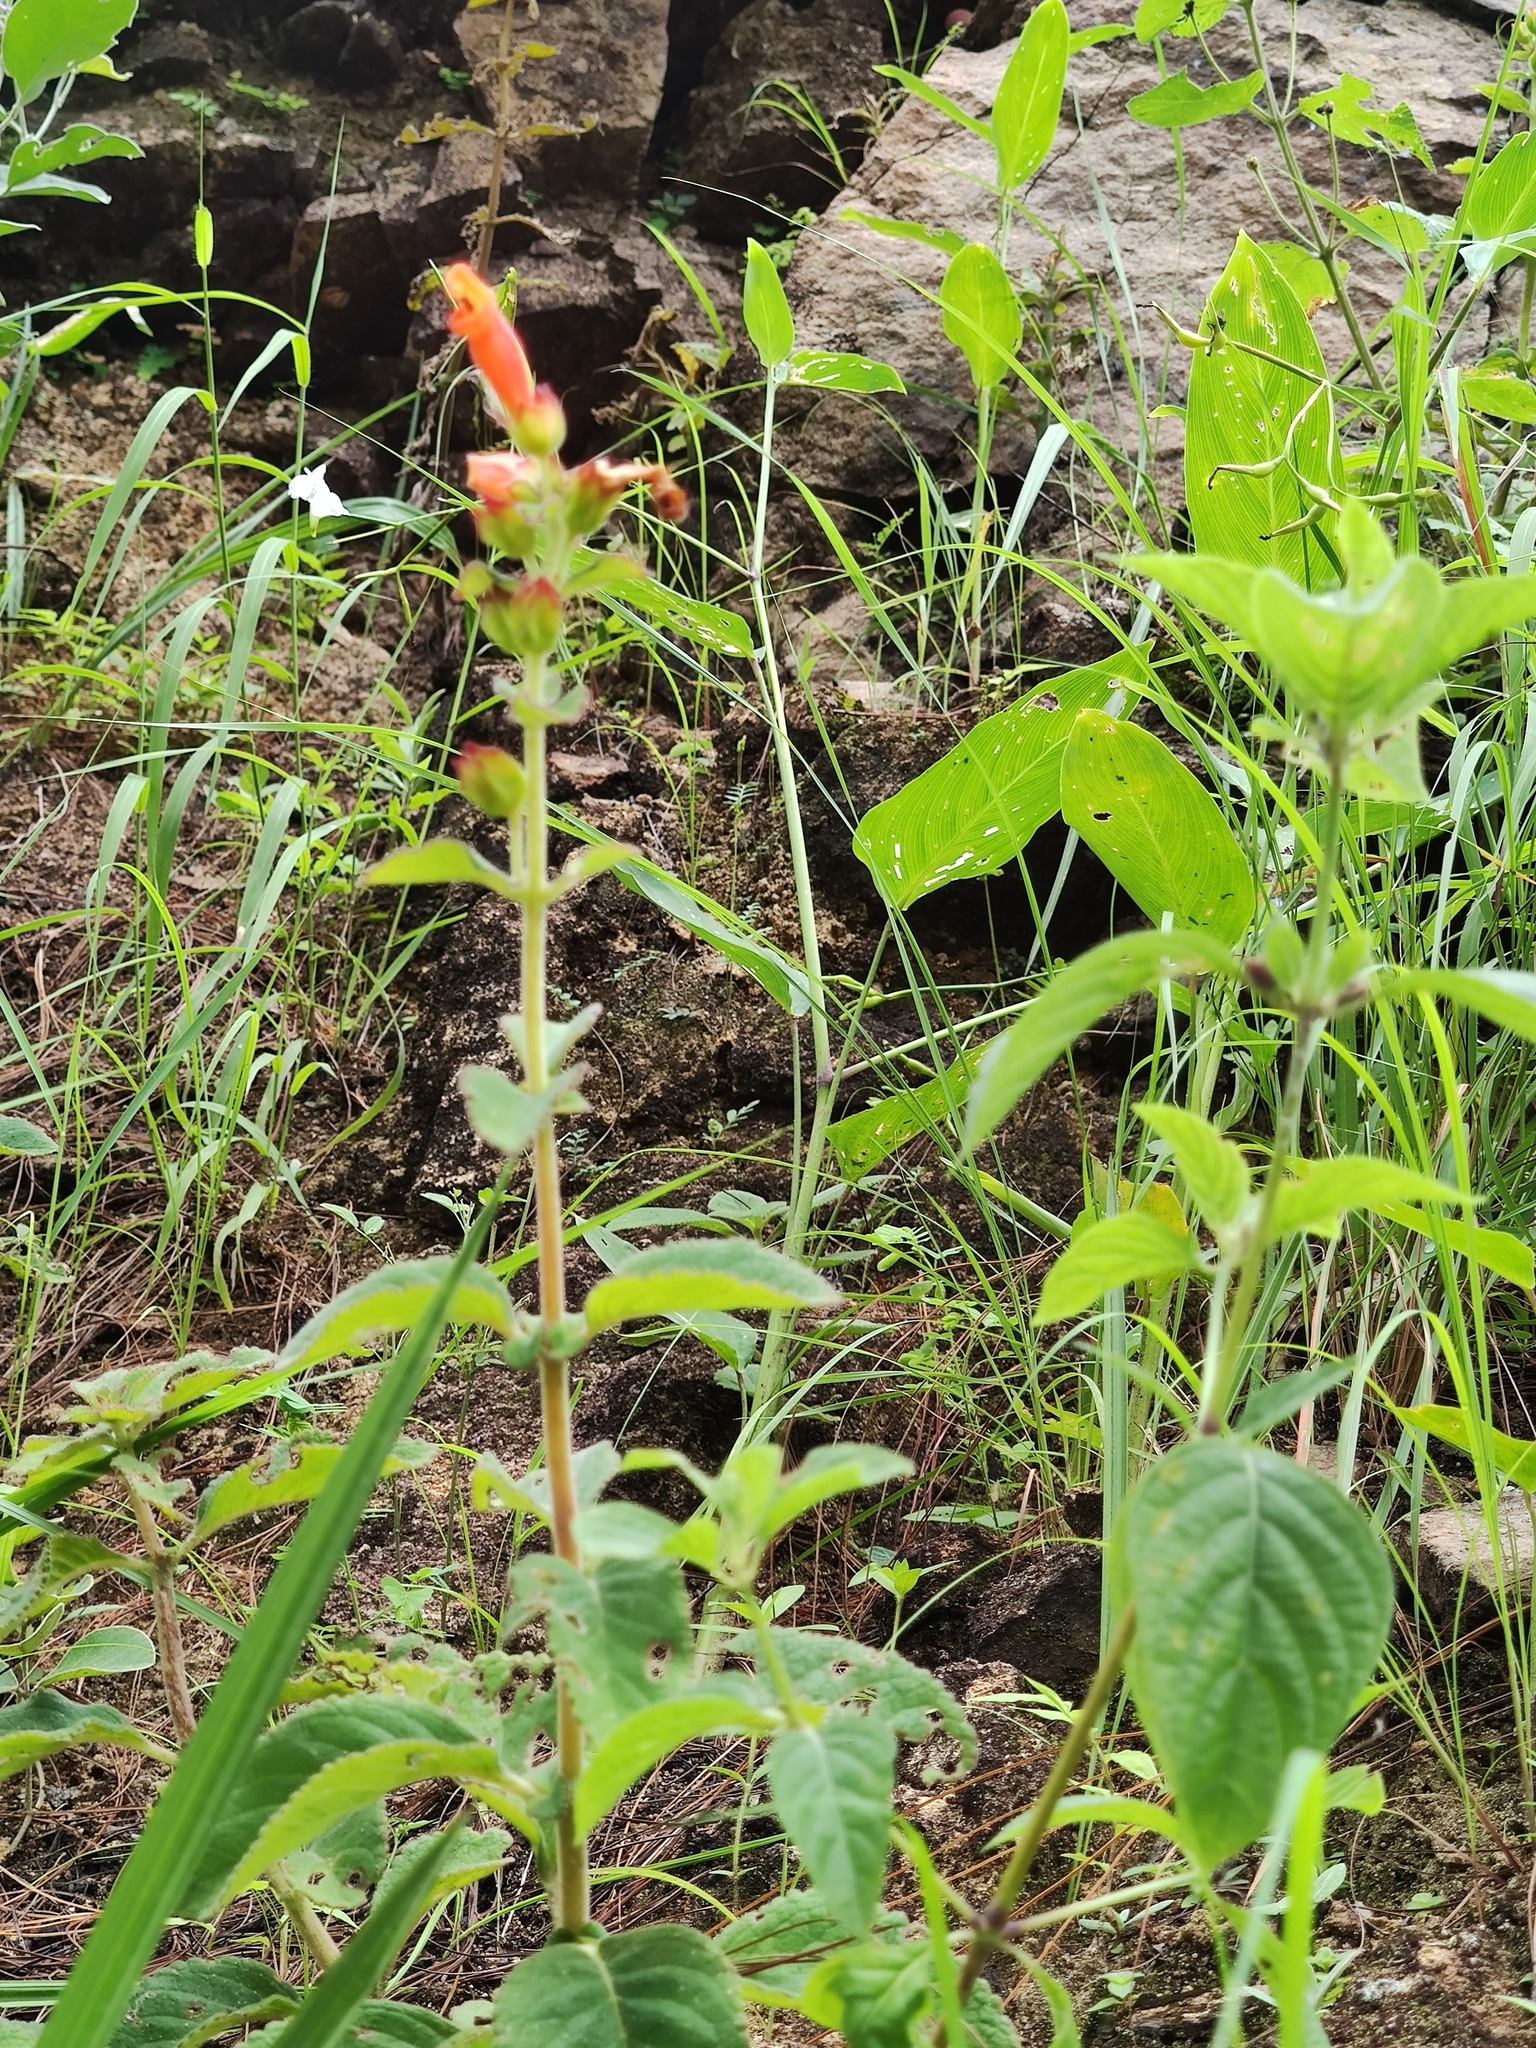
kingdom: Plantae
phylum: Tracheophyta
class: Magnoliopsida
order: Lamiales
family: Gesneriaceae
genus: Sinningia
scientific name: Sinningia incarnata
